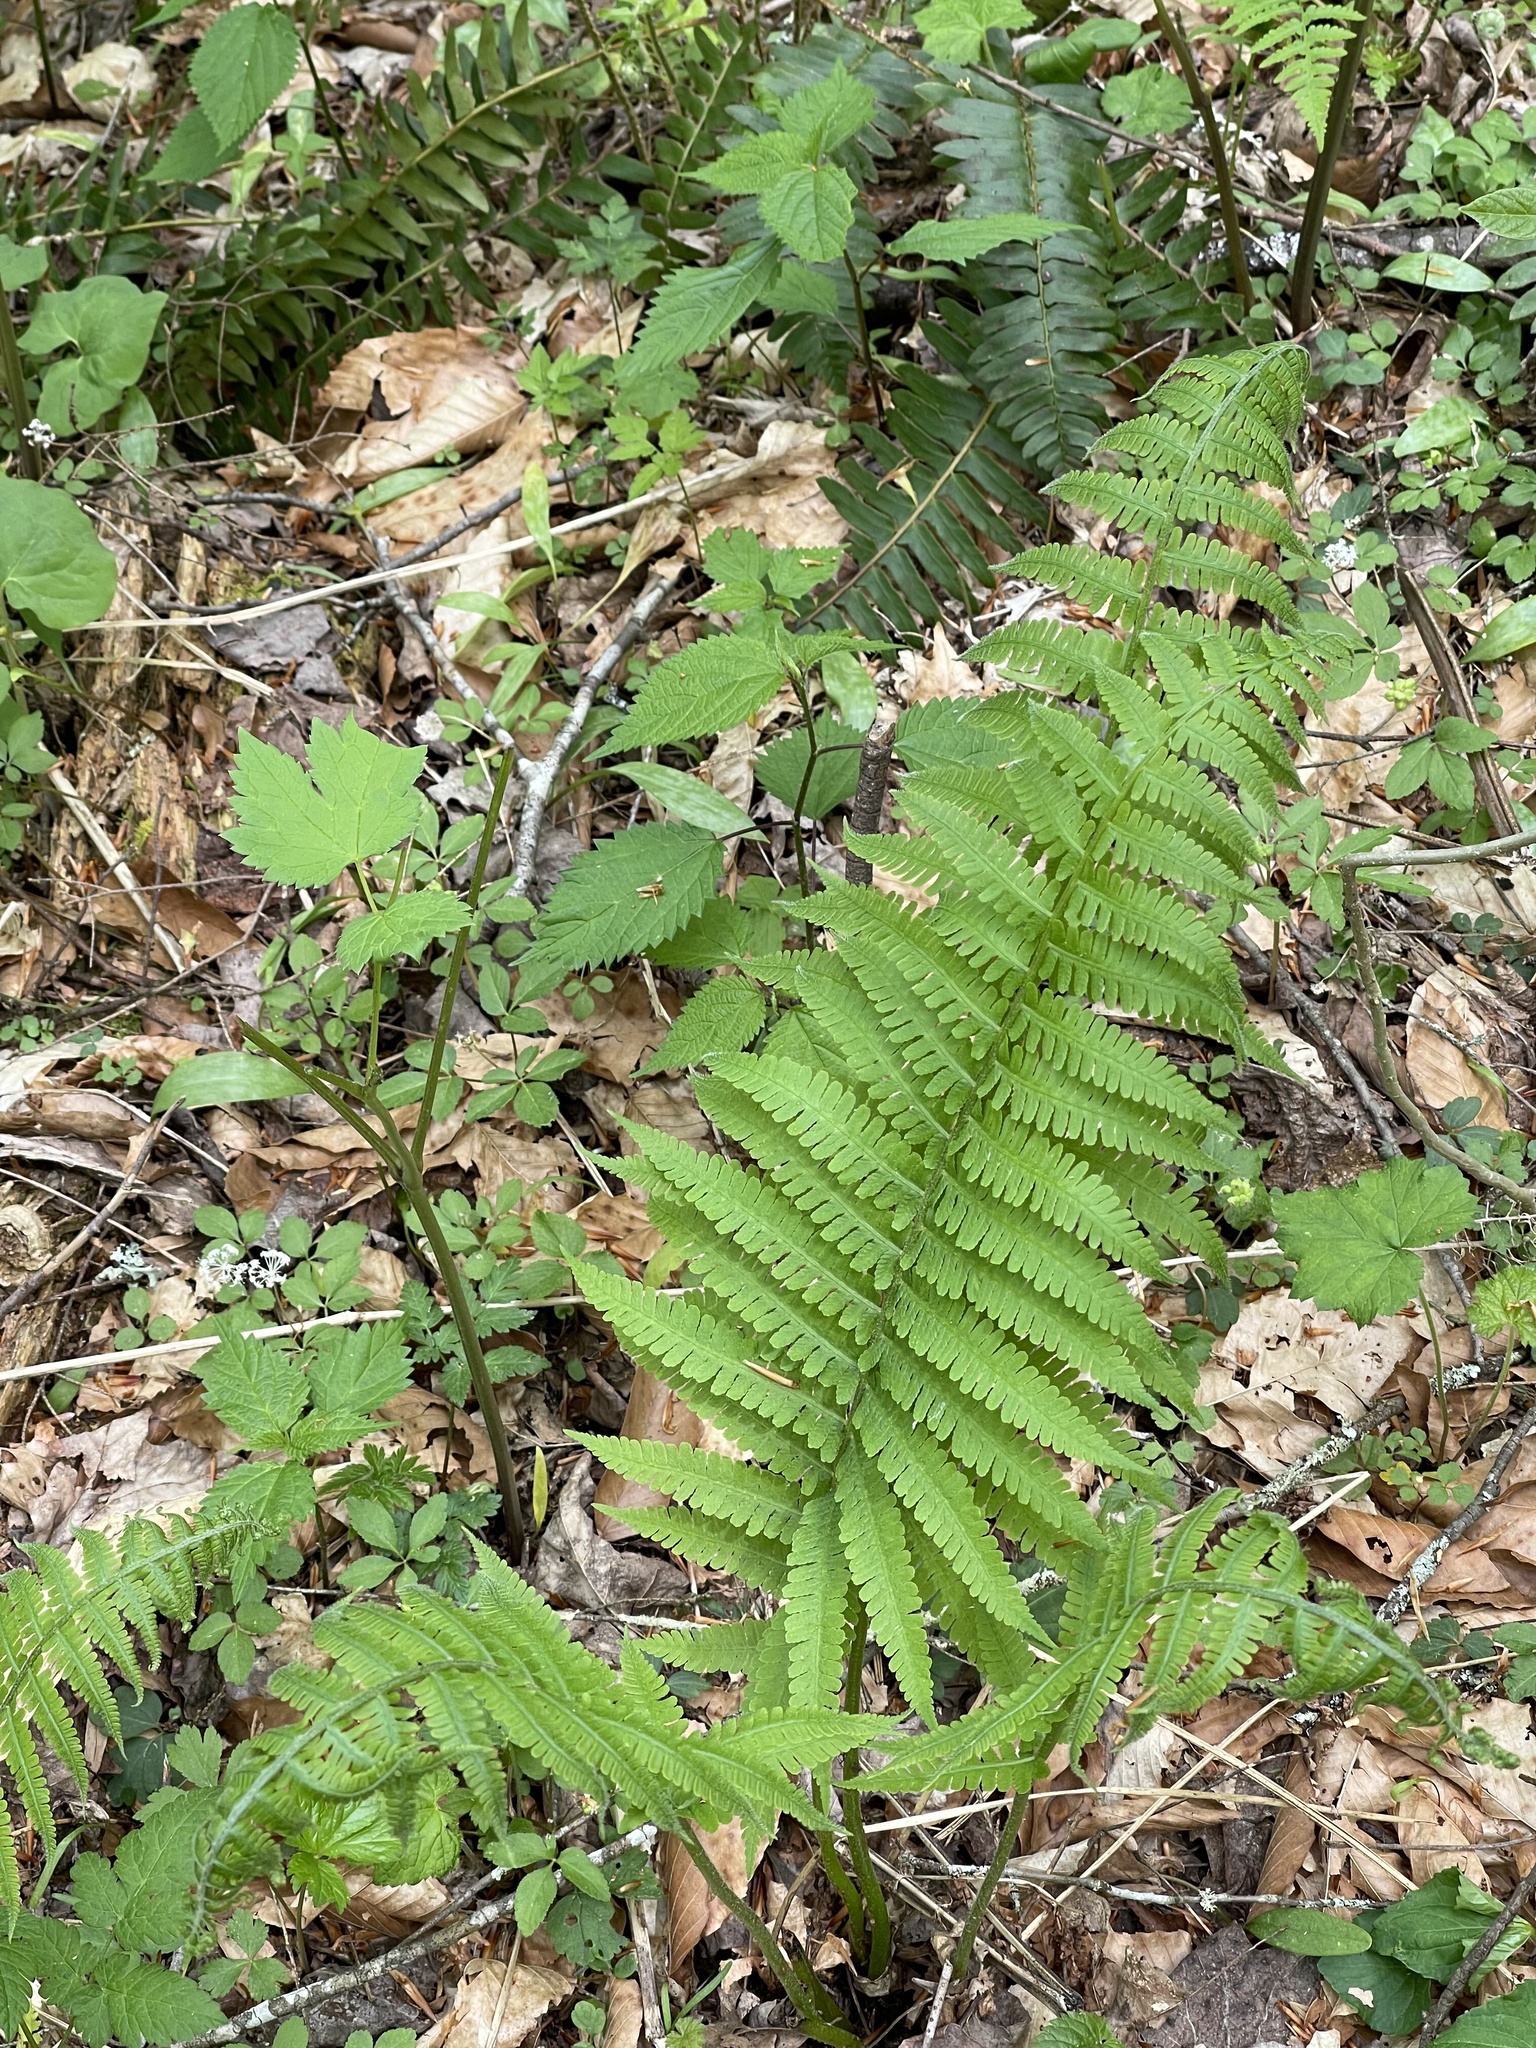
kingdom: Plantae
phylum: Tracheophyta
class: Polypodiopsida
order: Polypodiales
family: Athyriaceae
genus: Deparia
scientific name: Deparia acrostichoides
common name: Silver false spleenwort
